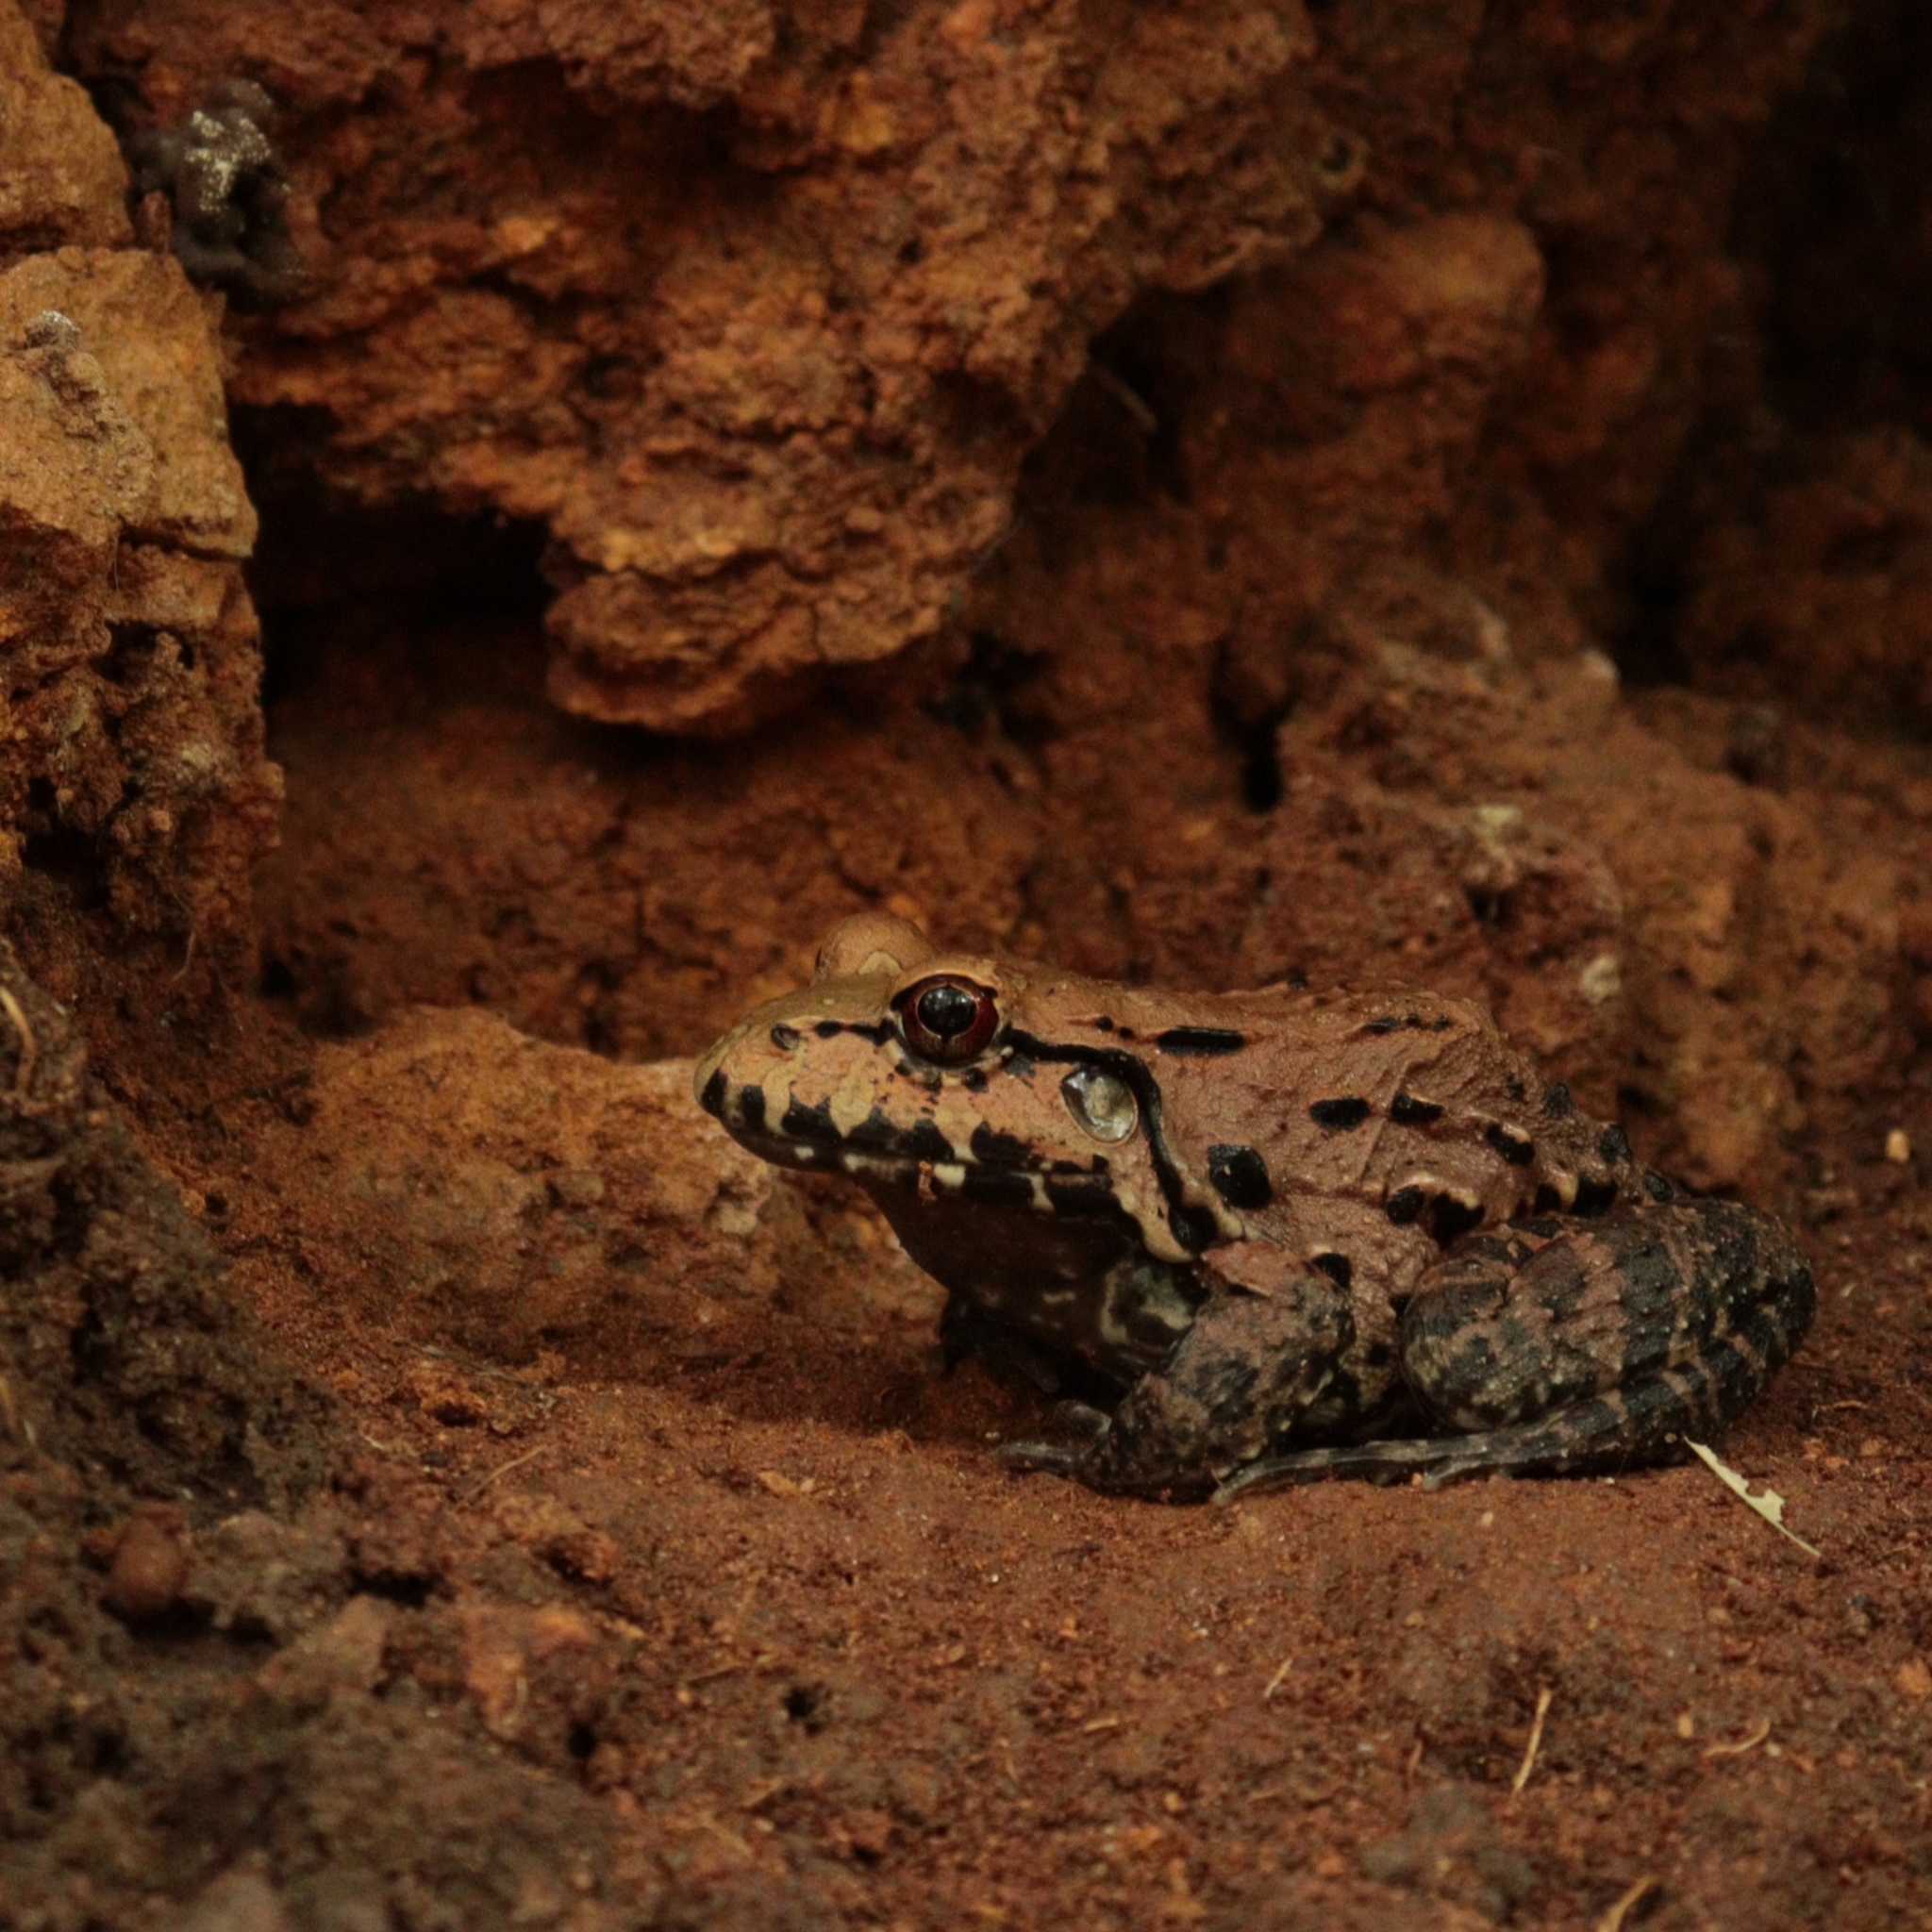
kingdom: Animalia
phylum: Chordata
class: Amphibia
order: Anura
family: Leptodactylidae
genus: Leptodactylus
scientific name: Leptodactylus vastus
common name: Northeastern pepper frog
